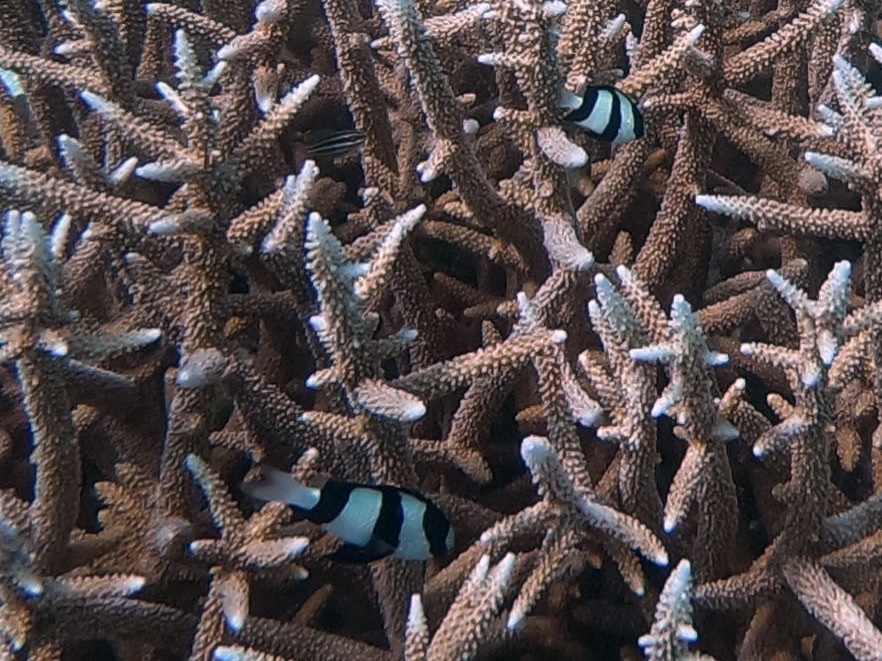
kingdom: Animalia
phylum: Chordata
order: Perciformes
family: Pomacentridae
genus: Dascyllus
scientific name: Dascyllus aruanus
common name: Humbug dascyllus
